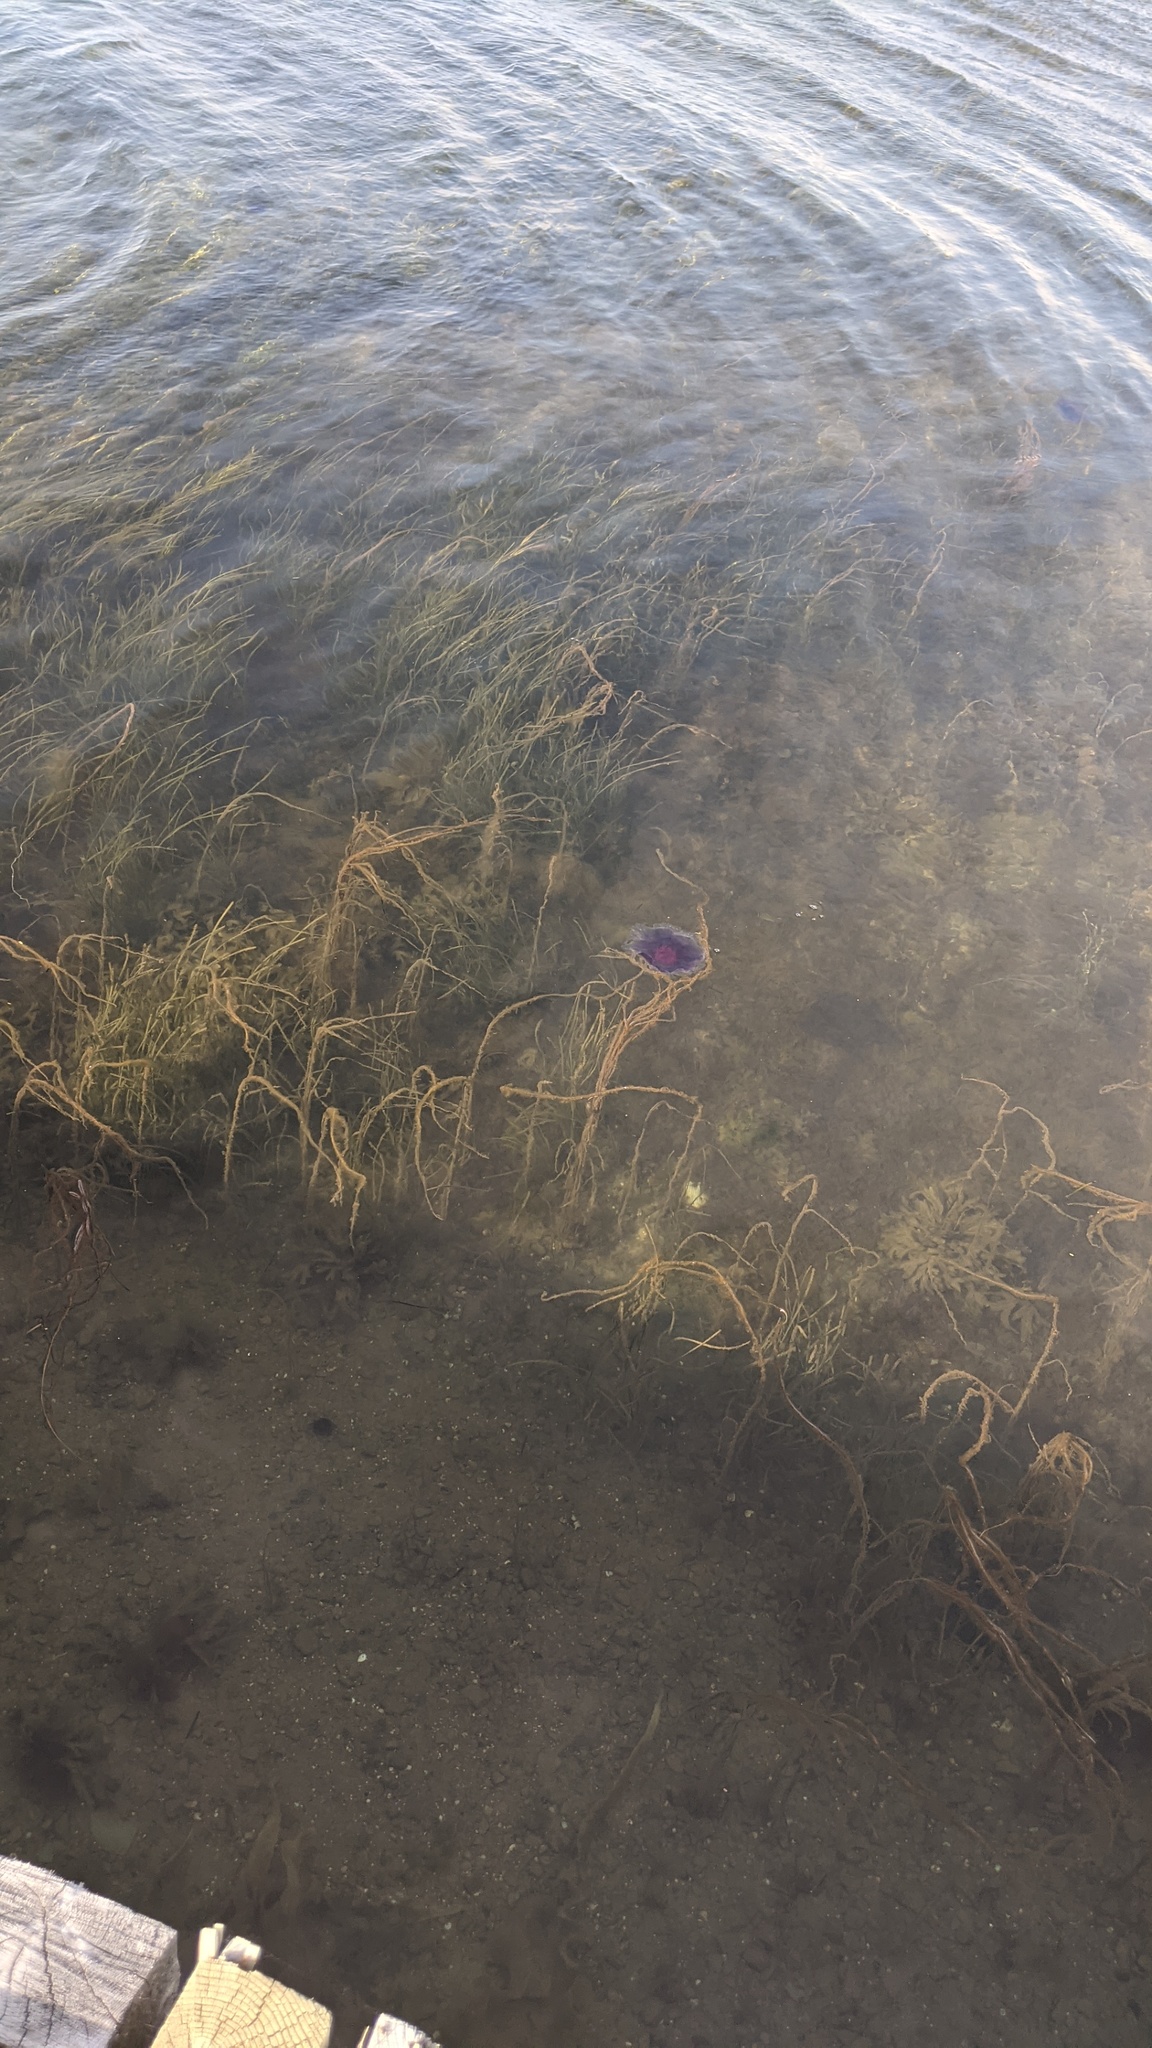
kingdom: Animalia
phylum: Cnidaria
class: Scyphozoa
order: Semaeostomeae
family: Cyaneidae
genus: Cyanea
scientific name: Cyanea
